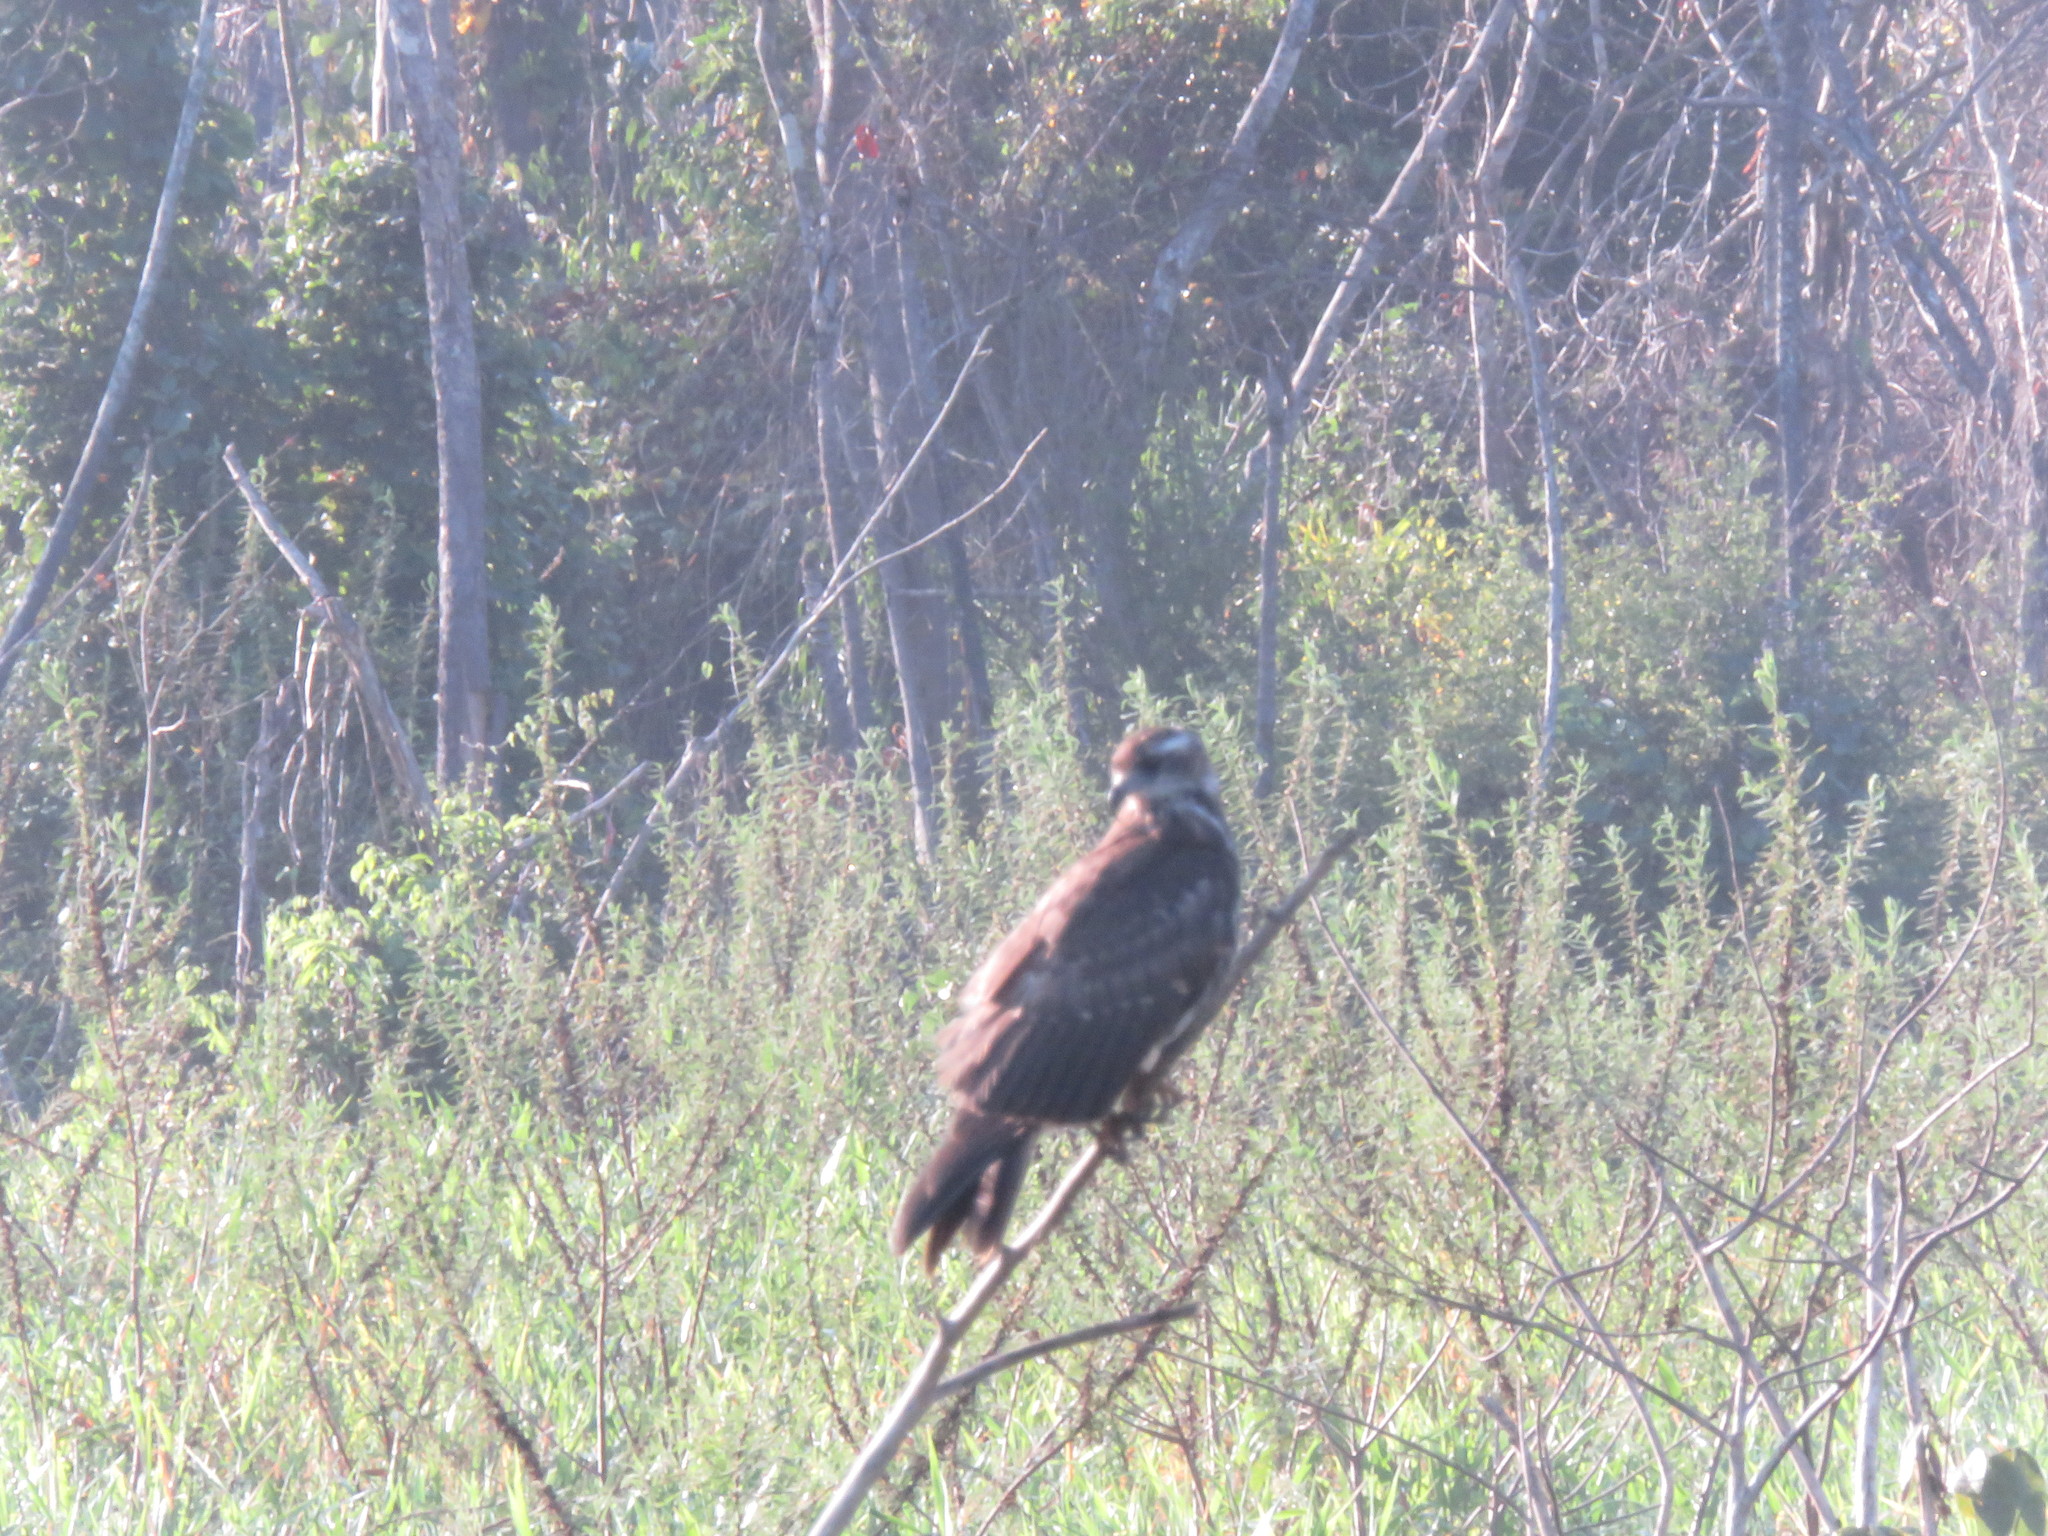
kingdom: Animalia
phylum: Chordata
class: Aves
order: Accipitriformes
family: Accipitridae
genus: Rostrhamus
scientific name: Rostrhamus sociabilis
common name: Snail kite
